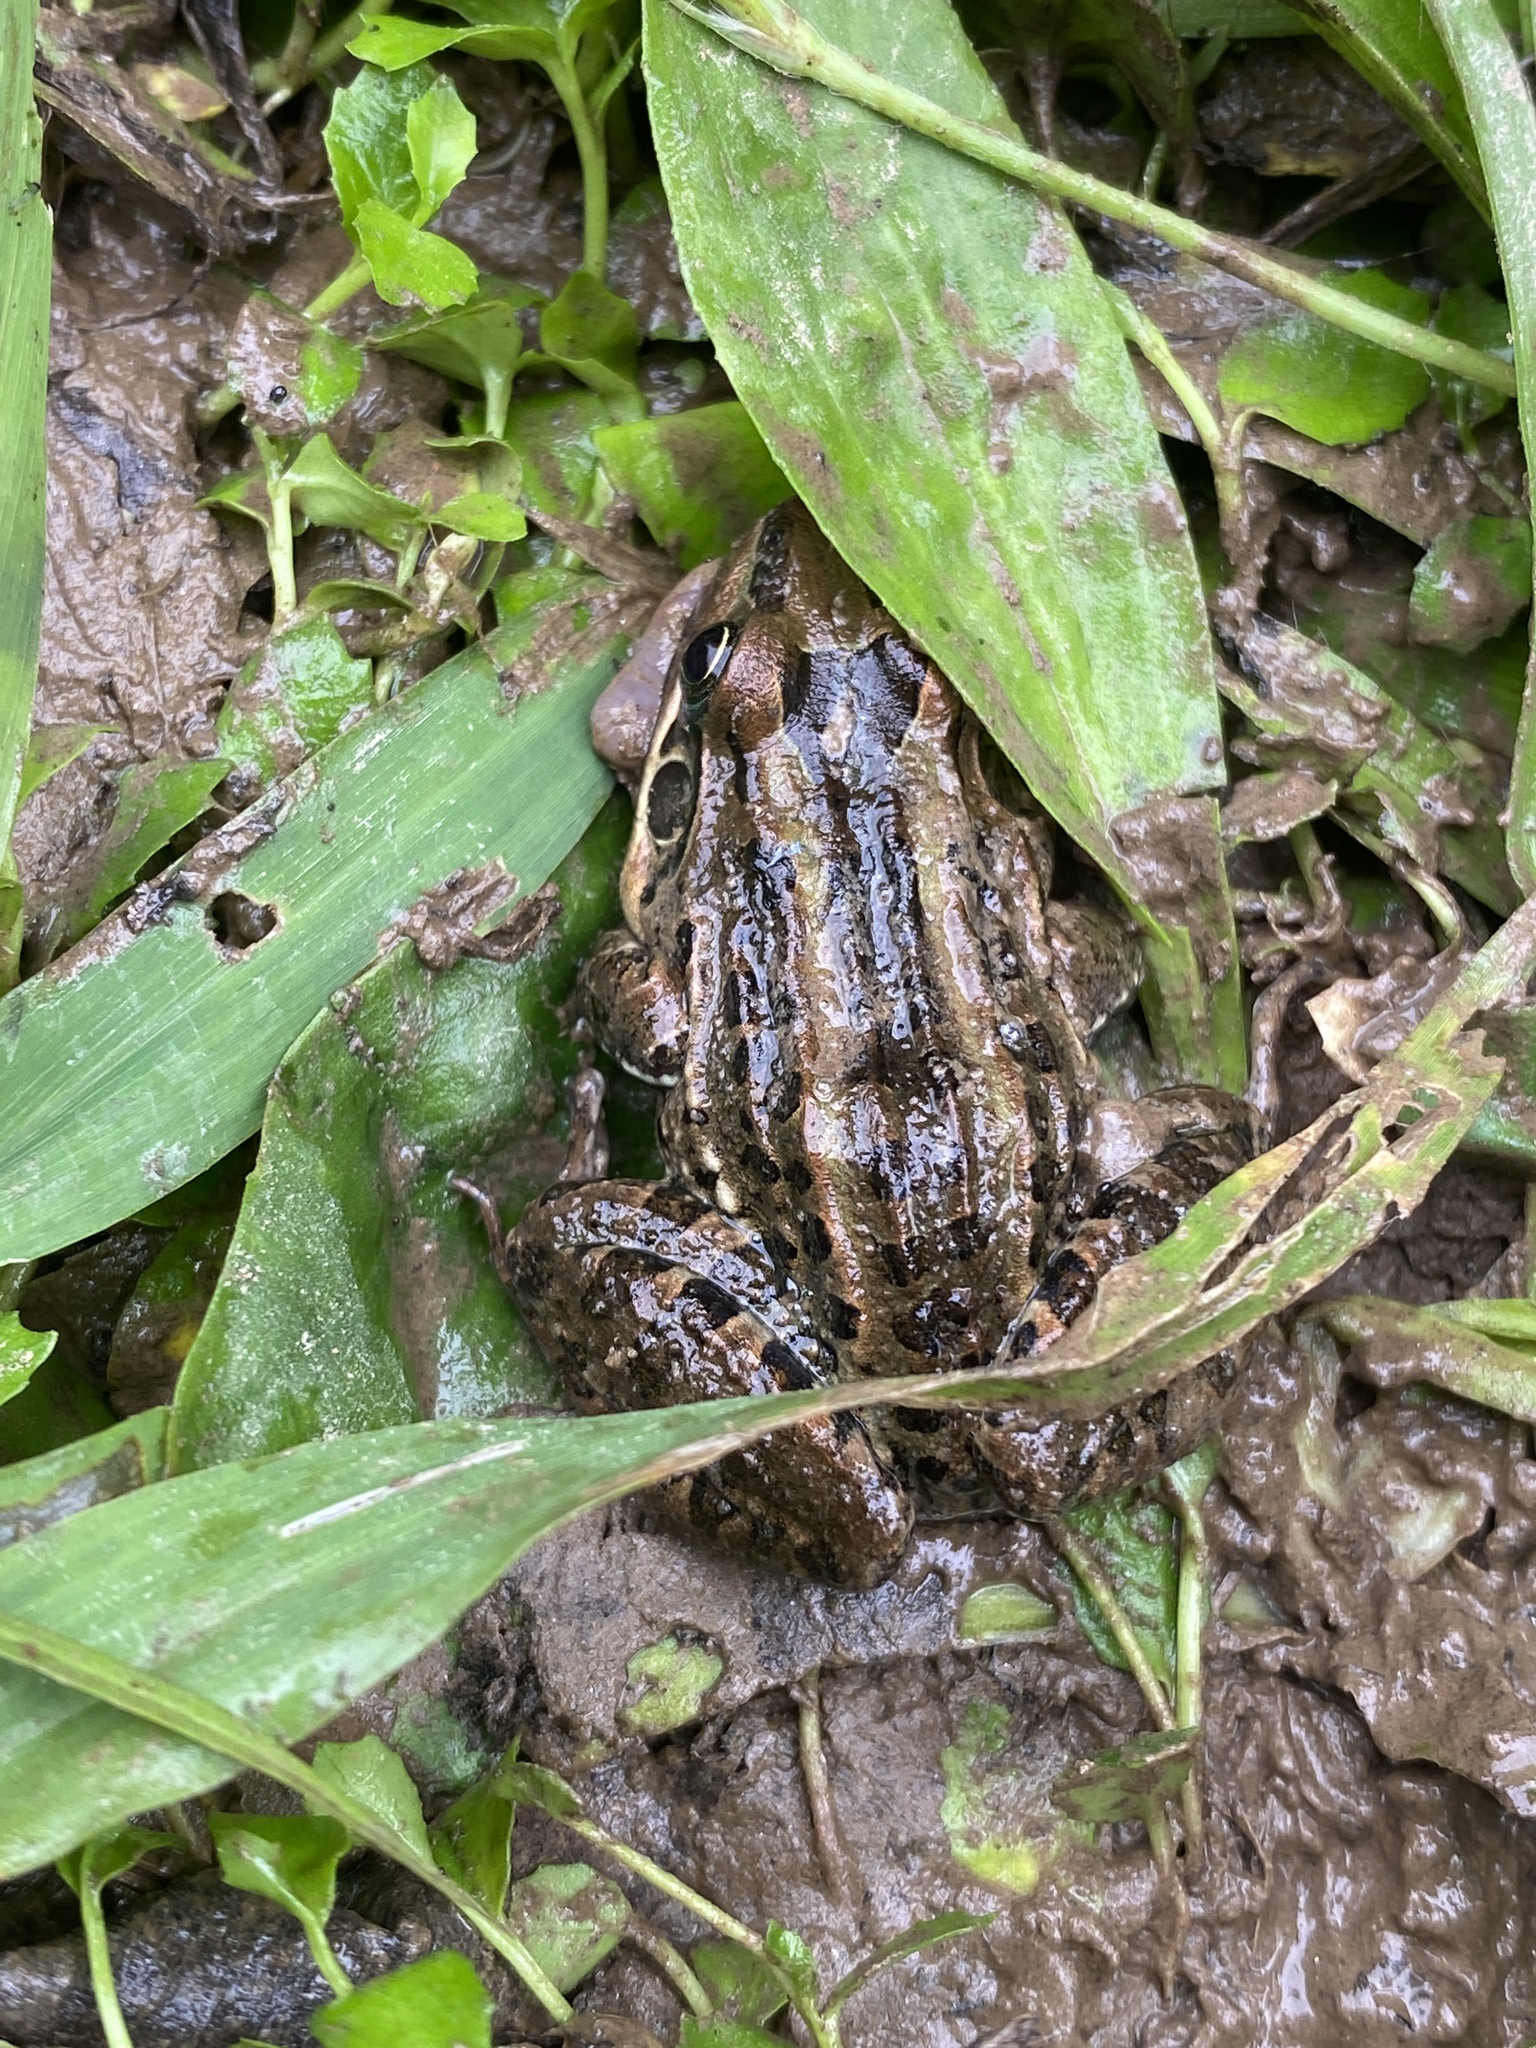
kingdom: Animalia
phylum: Chordata
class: Amphibia
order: Anura
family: Leptodactylidae
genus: Leptodactylus
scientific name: Leptodactylus luctator
